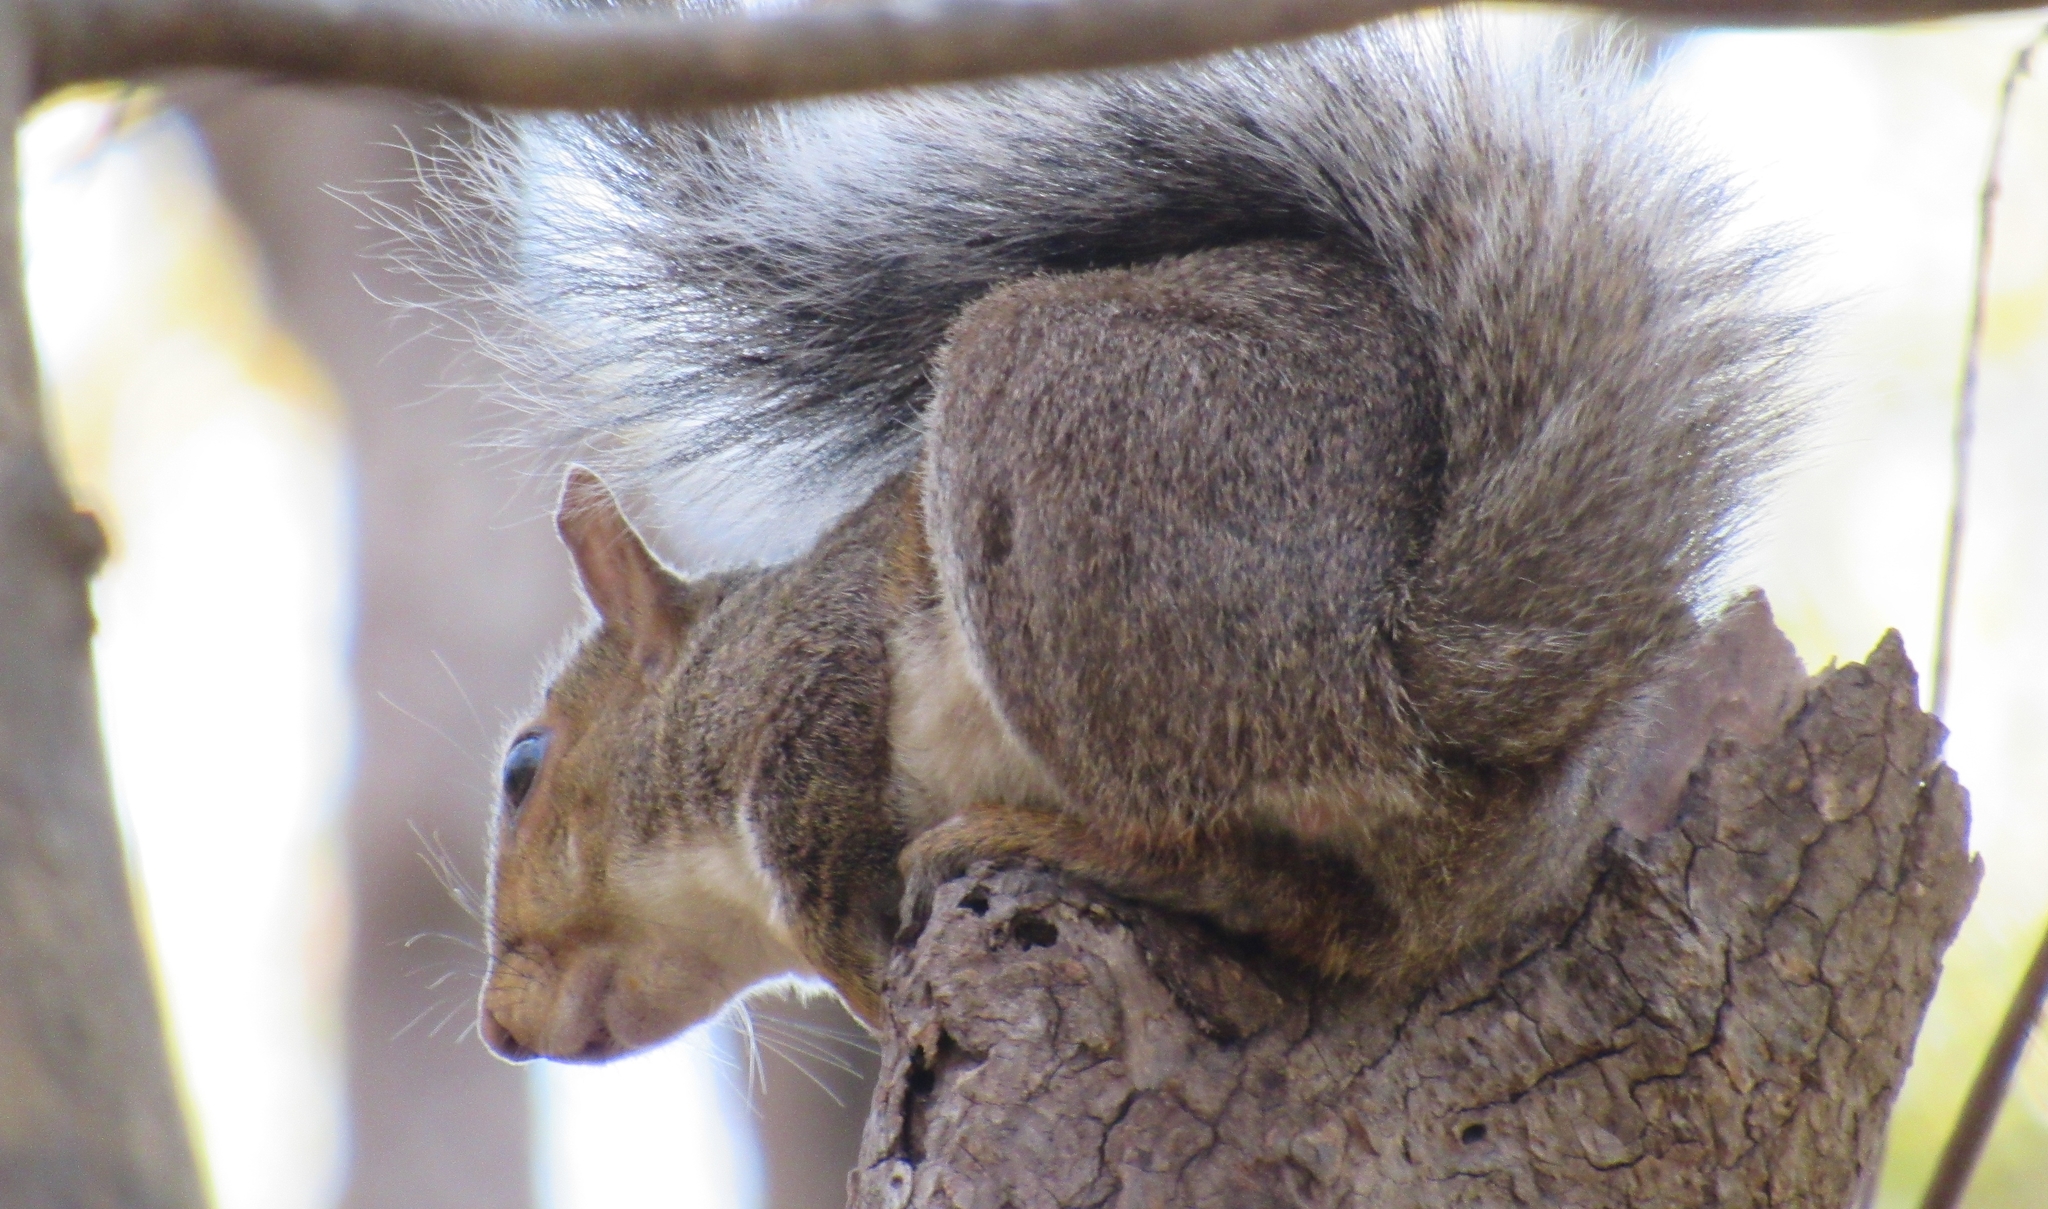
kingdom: Animalia
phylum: Chordata
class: Mammalia
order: Rodentia
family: Sciuridae
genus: Sciurus
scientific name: Sciurus carolinensis
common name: Eastern gray squirrel
